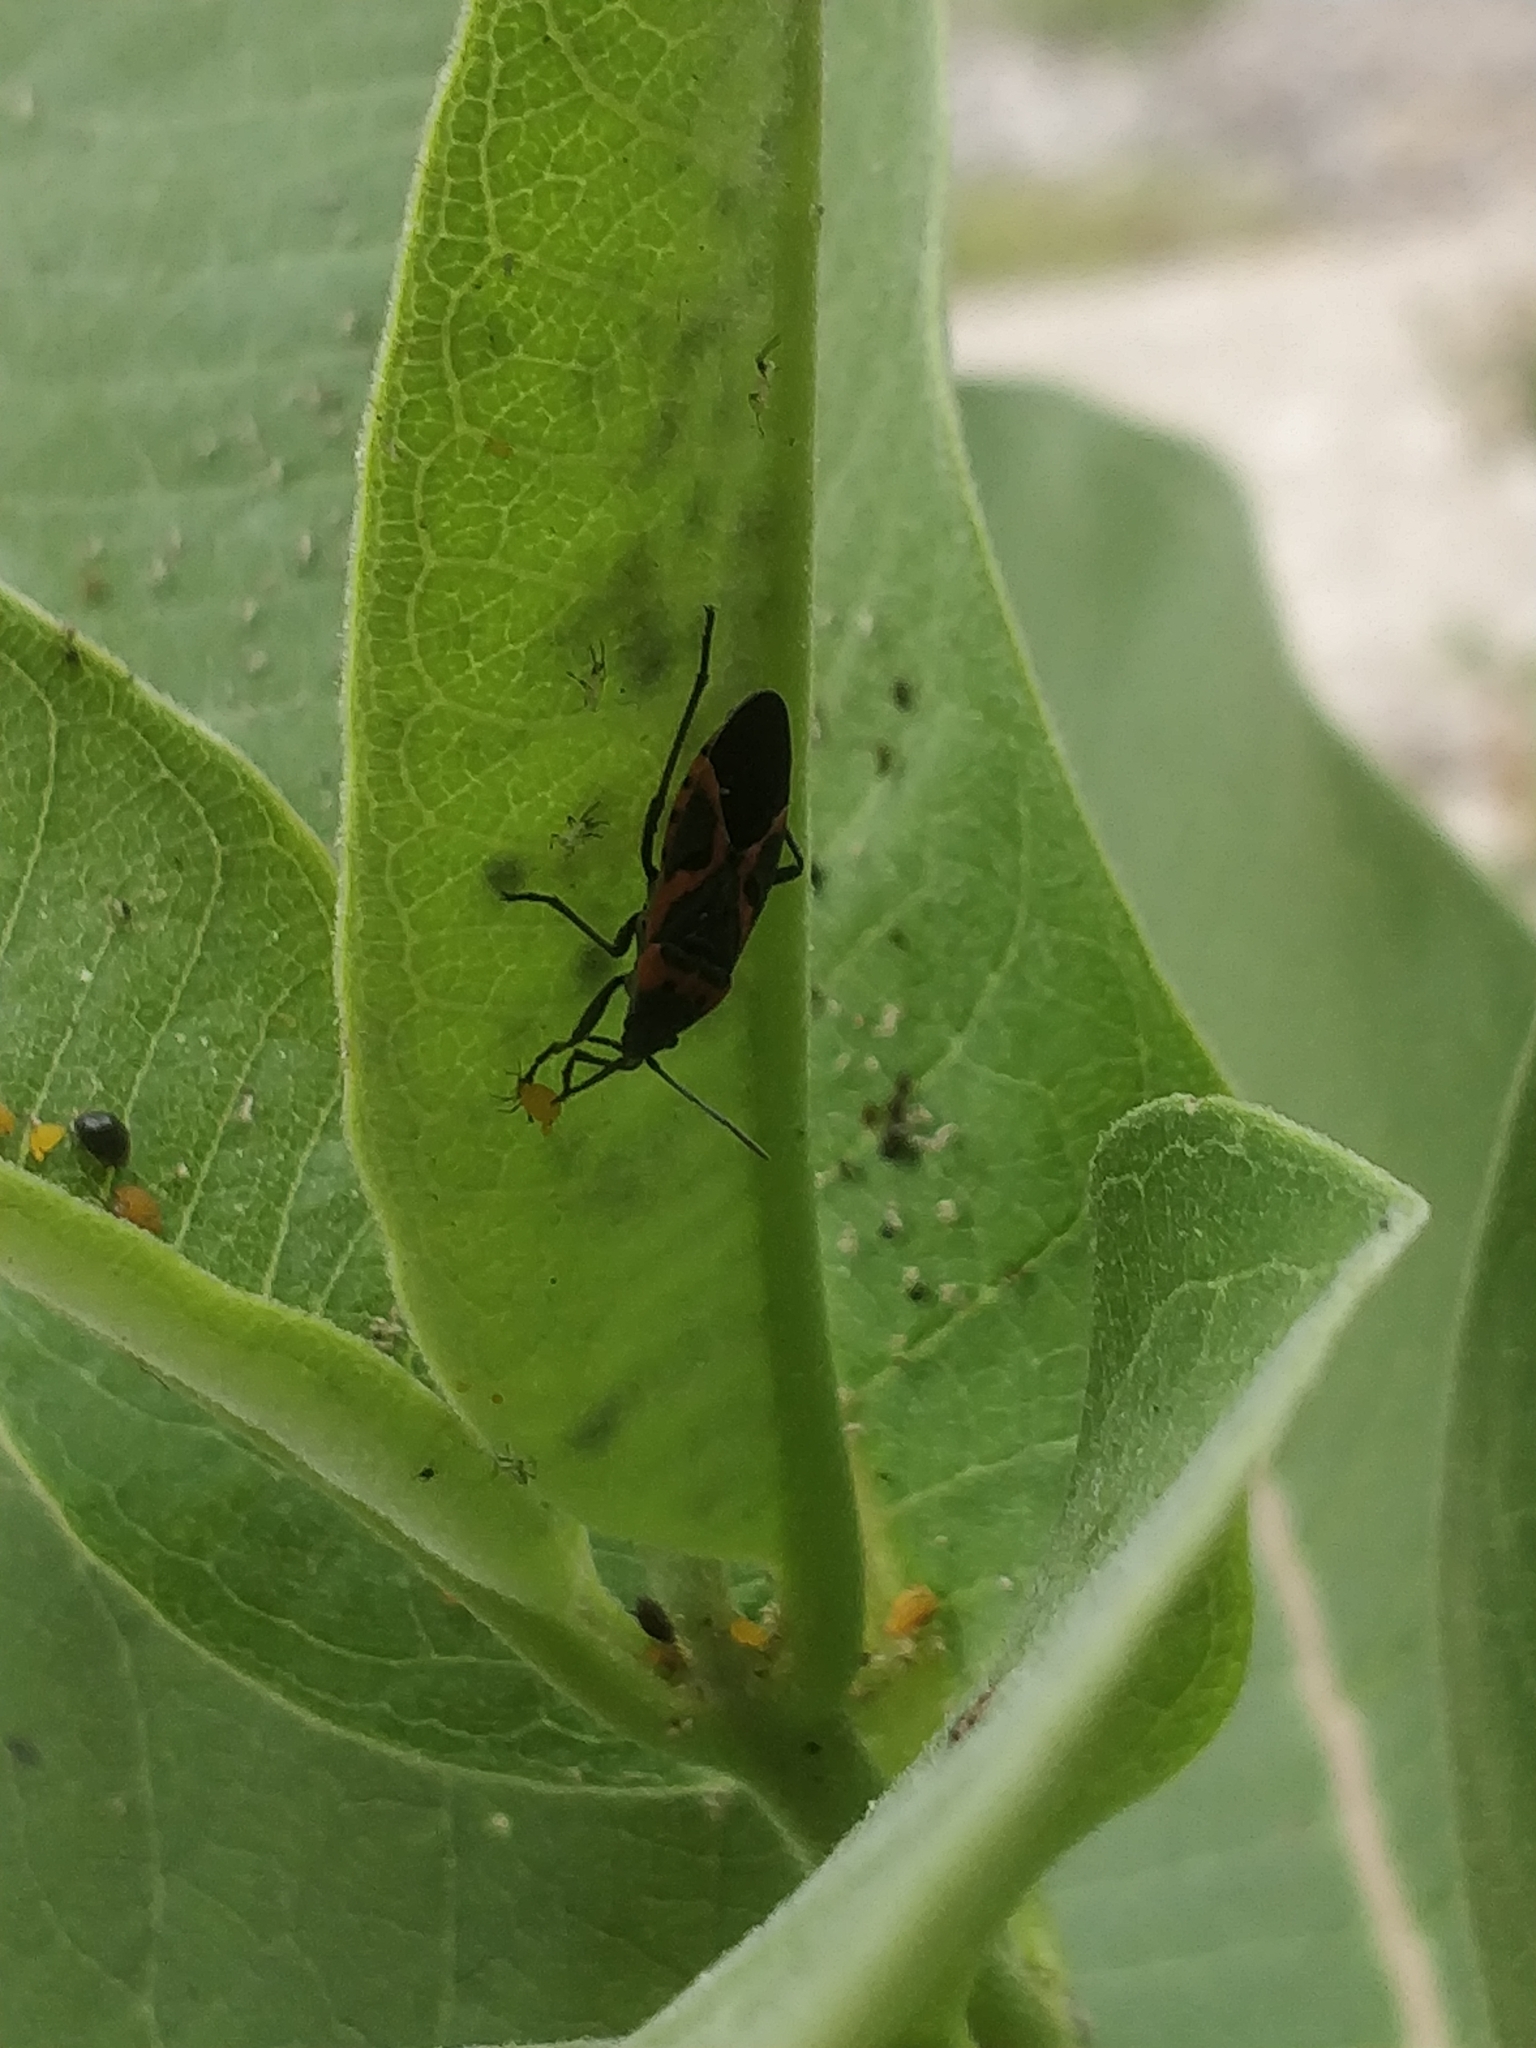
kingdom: Animalia
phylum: Arthropoda
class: Insecta
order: Hemiptera
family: Lygaeidae
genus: Lygaeus
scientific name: Lygaeus kalmii
